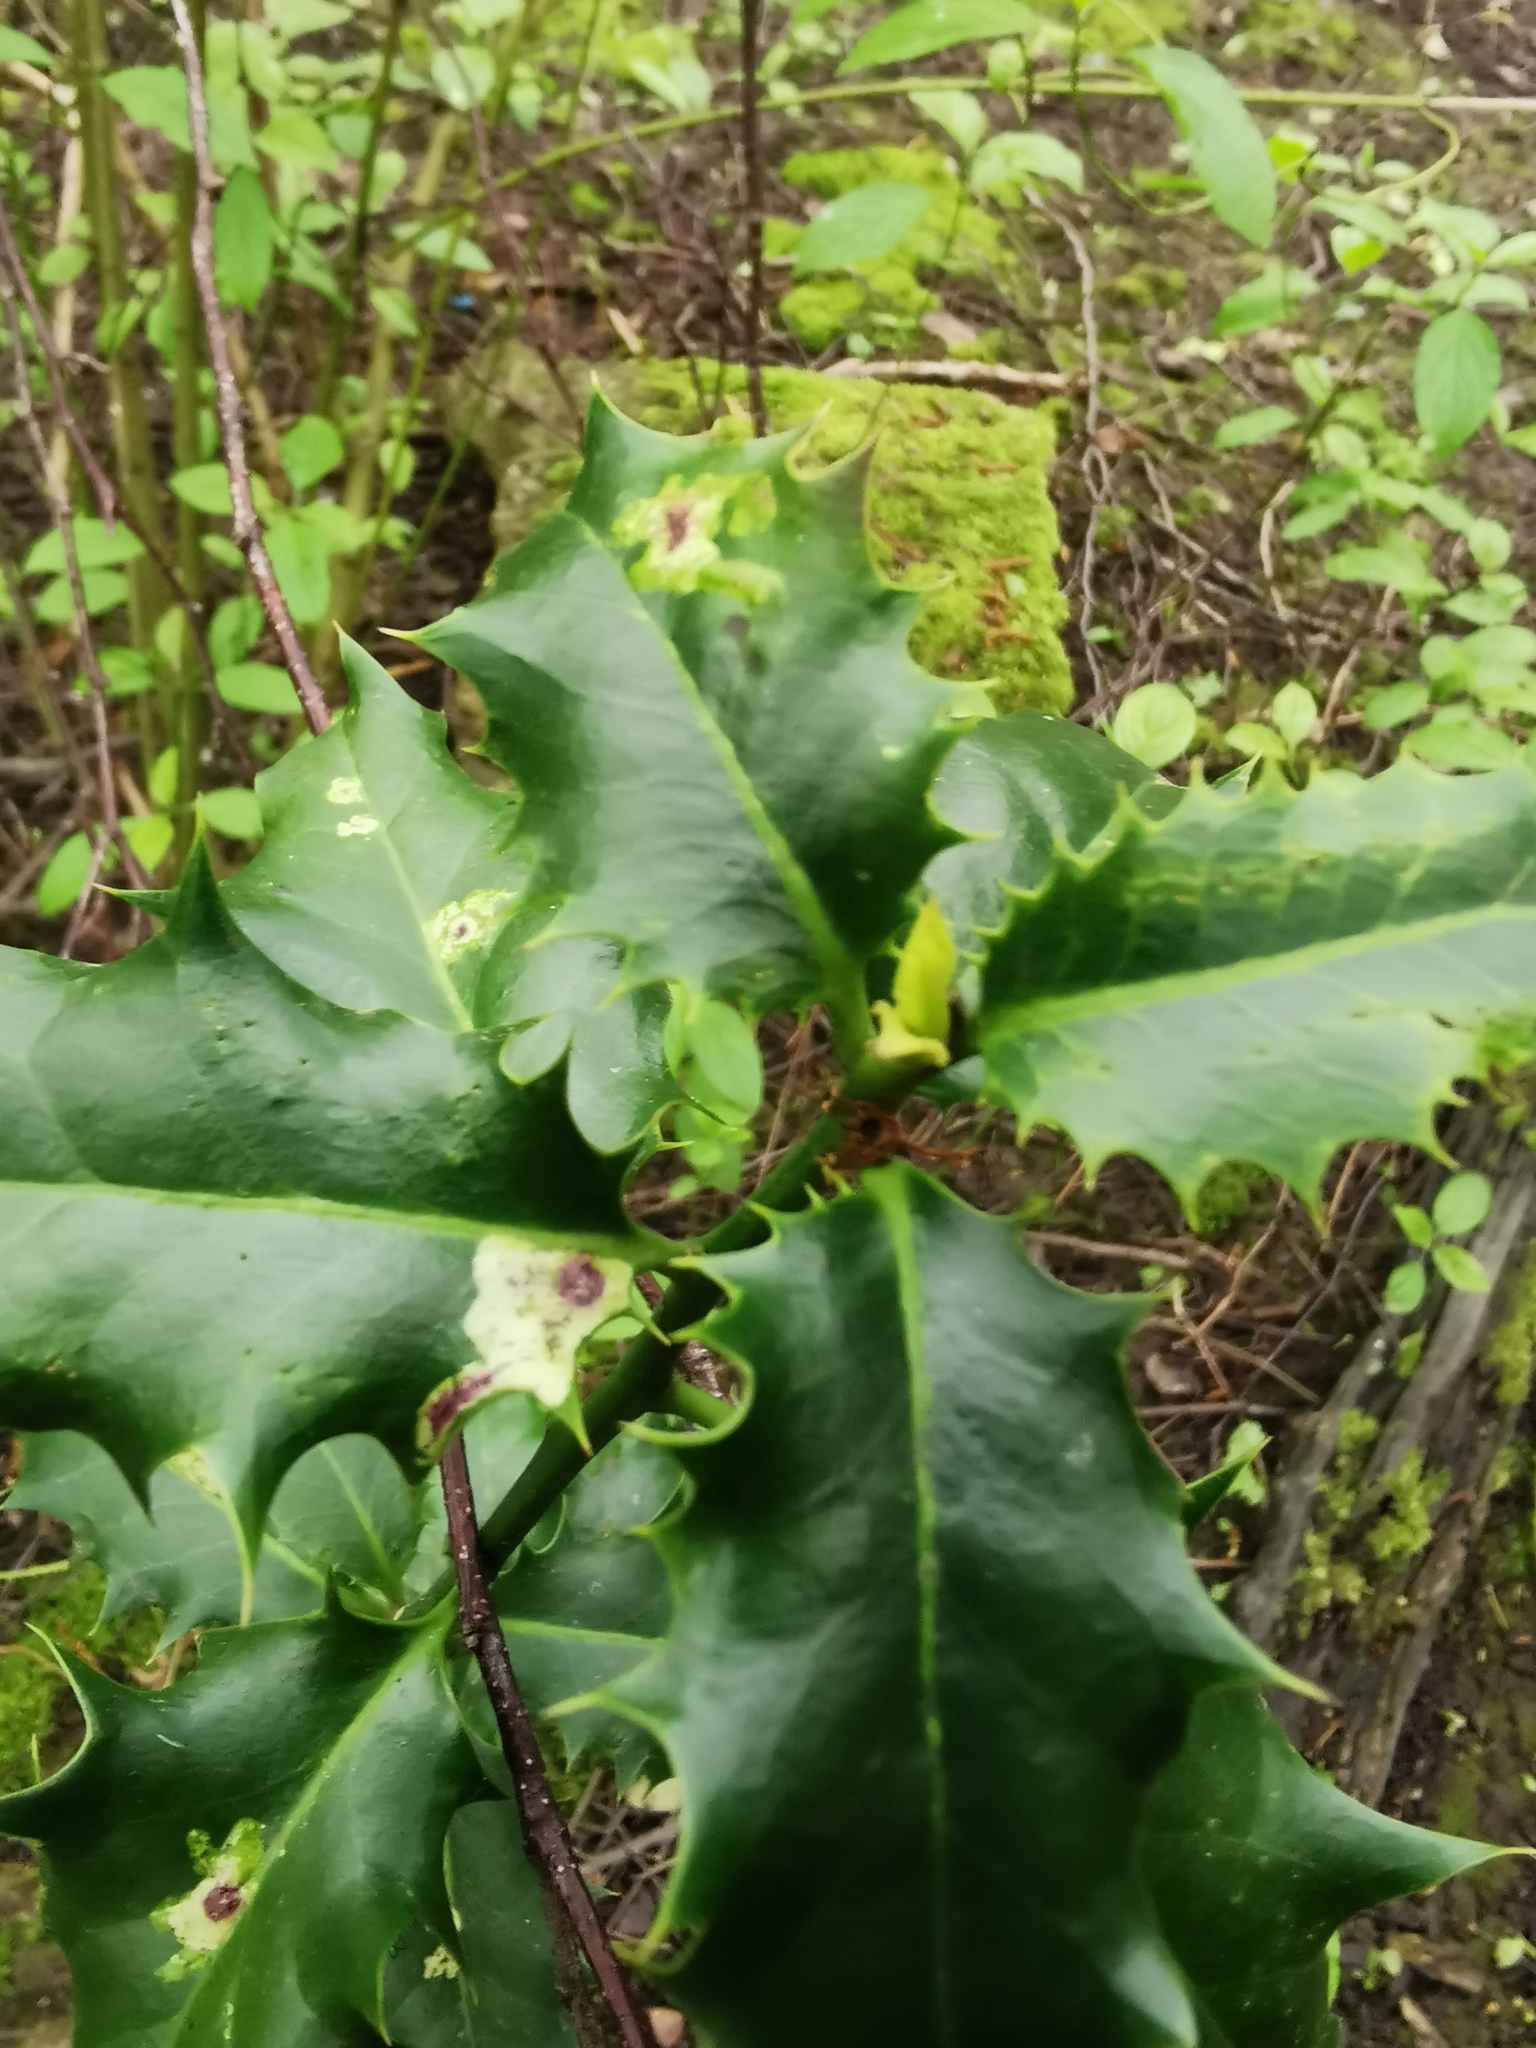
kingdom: Animalia
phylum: Arthropoda
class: Insecta
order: Diptera
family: Agromyzidae
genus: Phytomyza
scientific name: Phytomyza ilicis
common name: Holly leafminer
